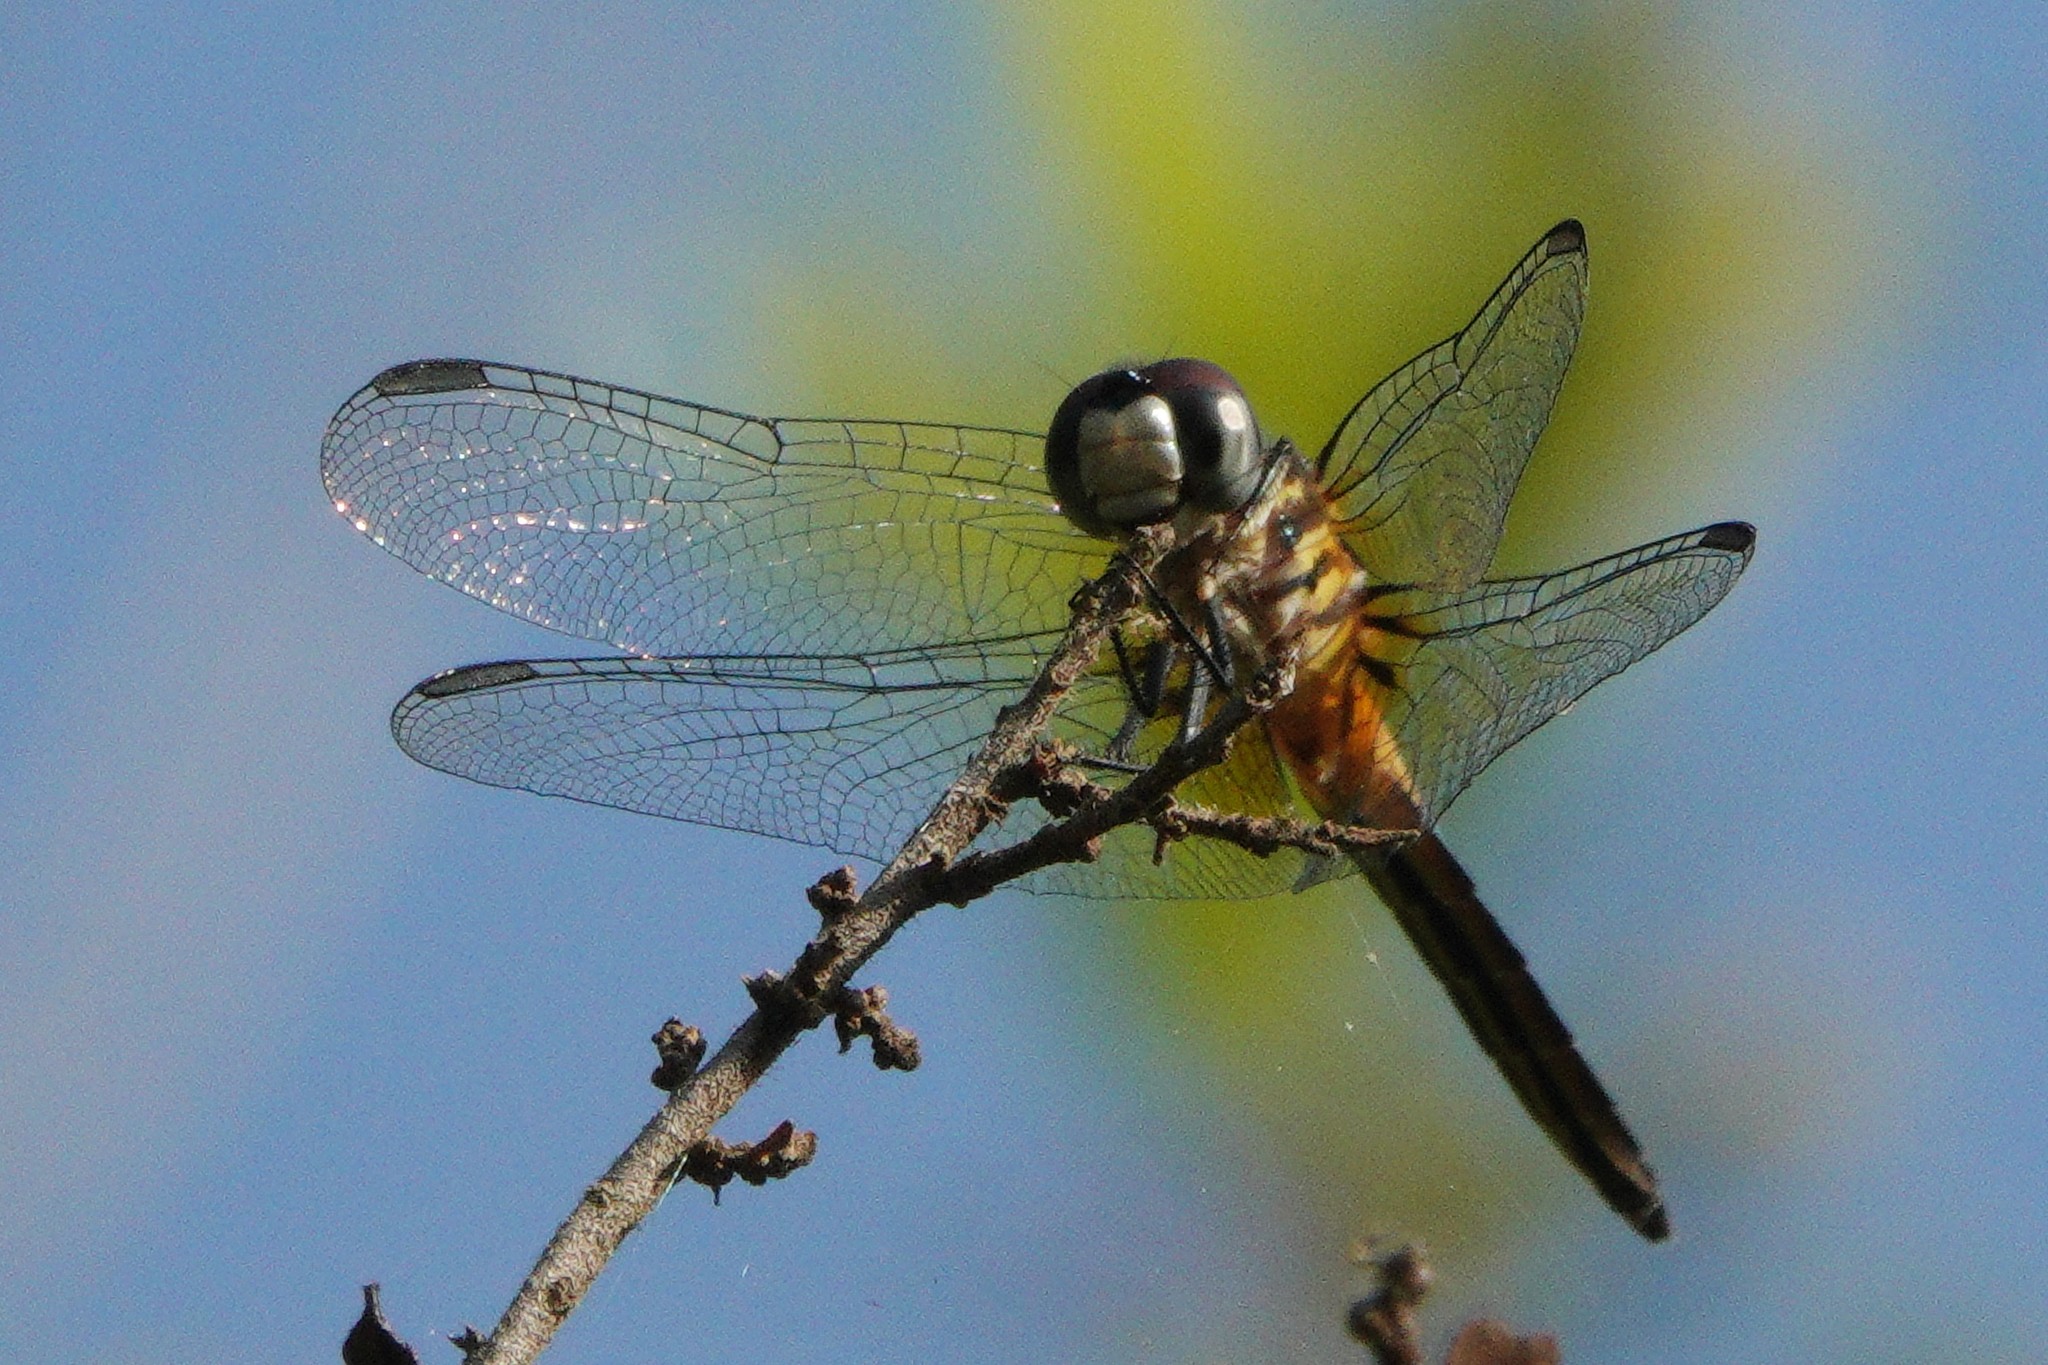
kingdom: Animalia
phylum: Arthropoda
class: Insecta
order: Odonata
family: Libellulidae
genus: Pachydiplax
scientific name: Pachydiplax longipennis
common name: Blue dasher
